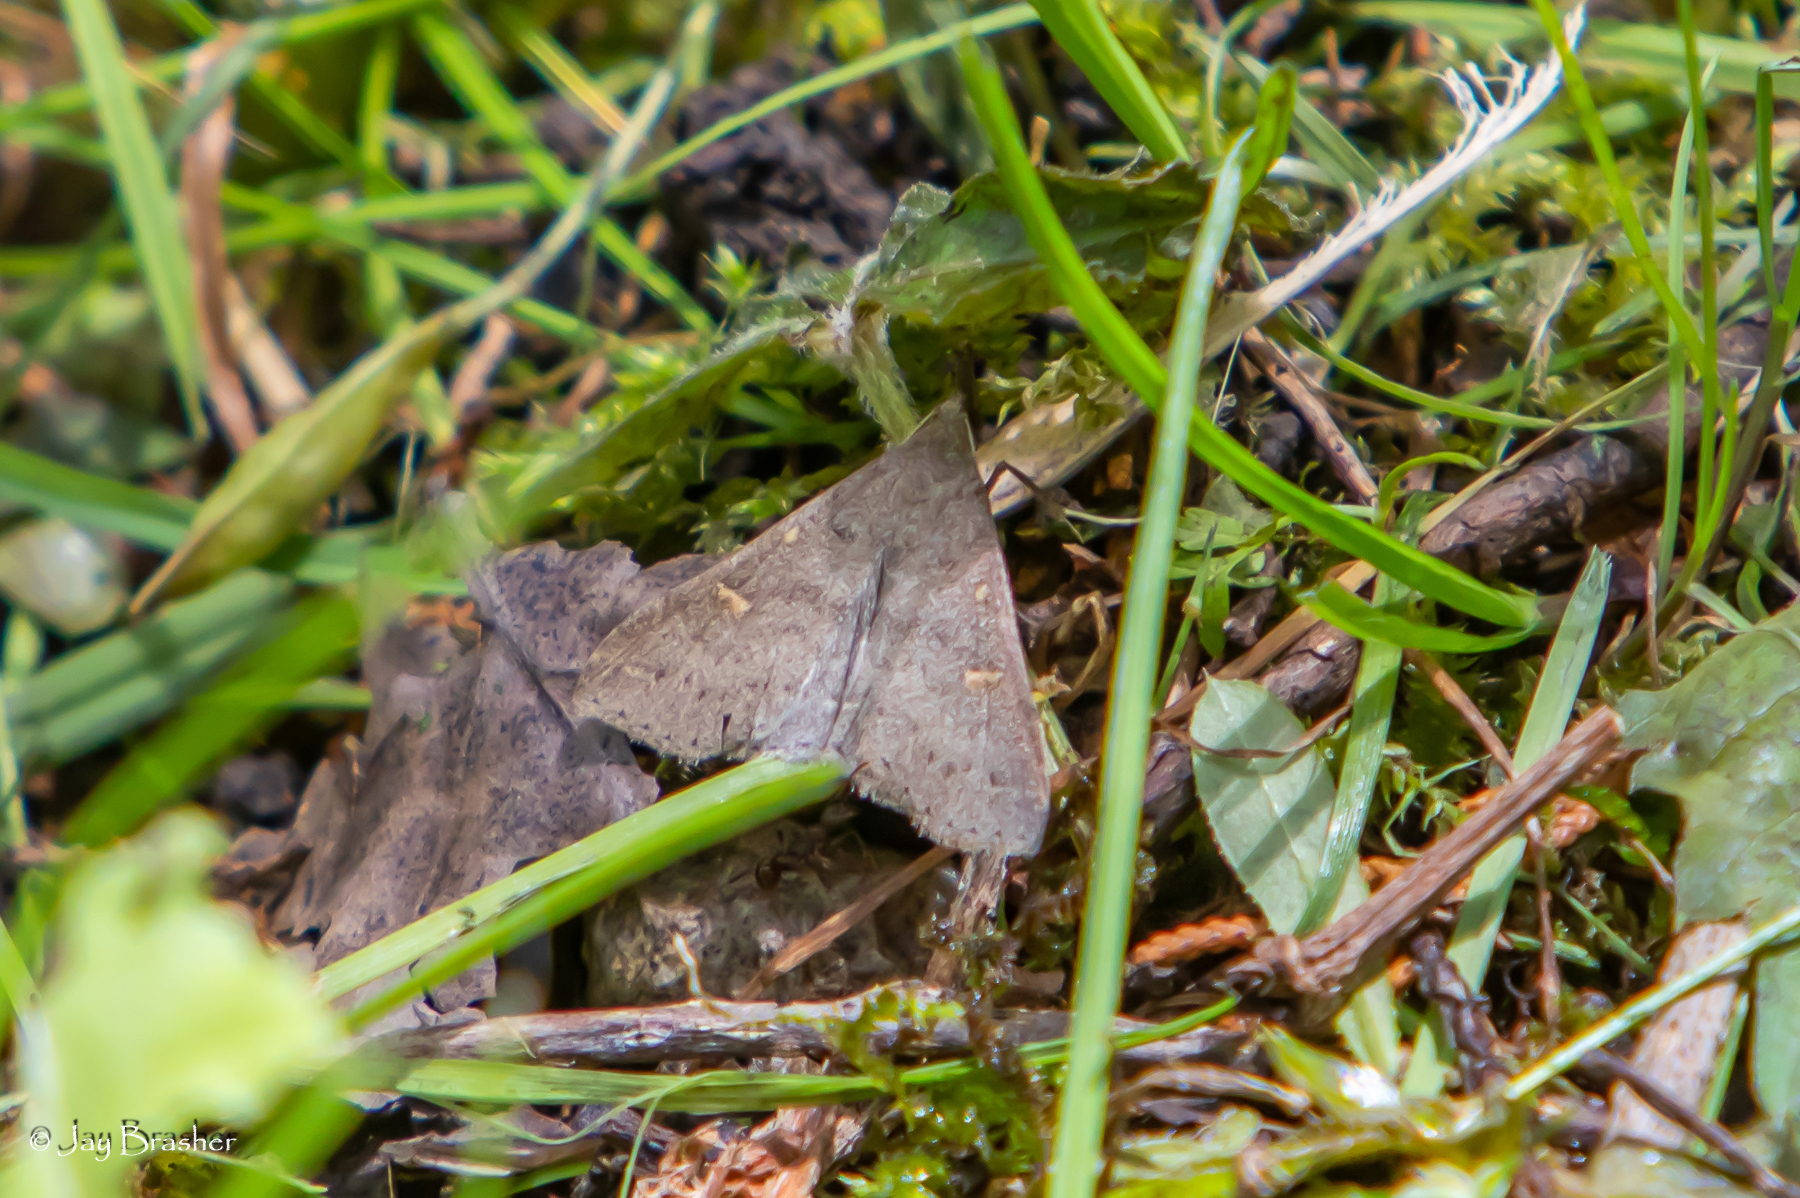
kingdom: Animalia
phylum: Arthropoda
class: Insecta
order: Lepidoptera
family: Erebidae
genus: Renia
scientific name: Renia adspergillus
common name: Speckled renia moth
